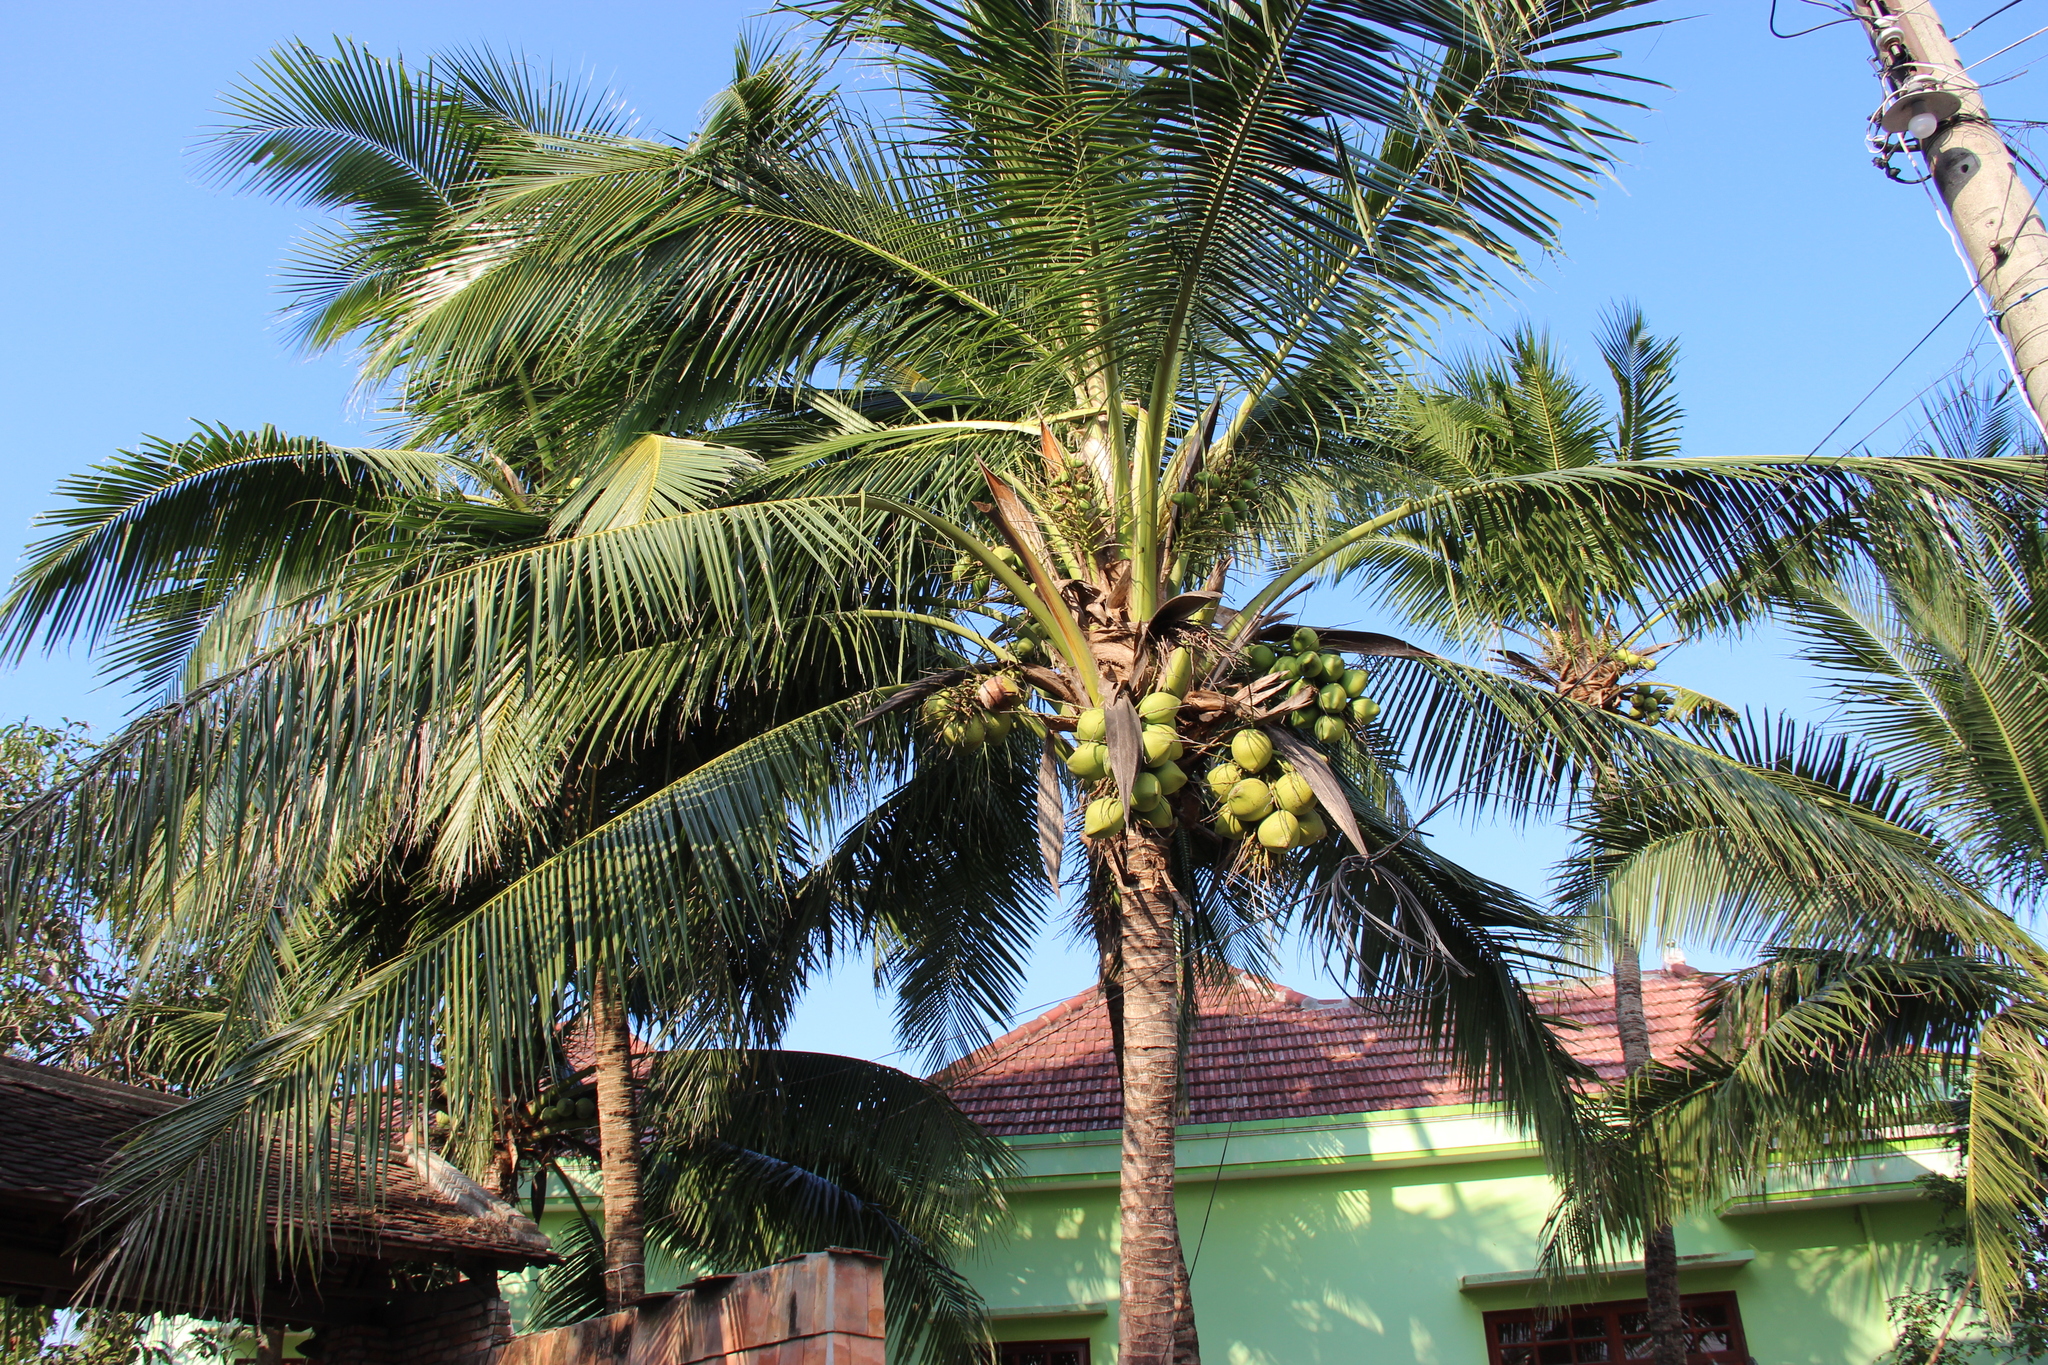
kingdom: Plantae
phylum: Tracheophyta
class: Liliopsida
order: Arecales
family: Arecaceae
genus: Cocos
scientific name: Cocos nucifera
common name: Coconut palm
